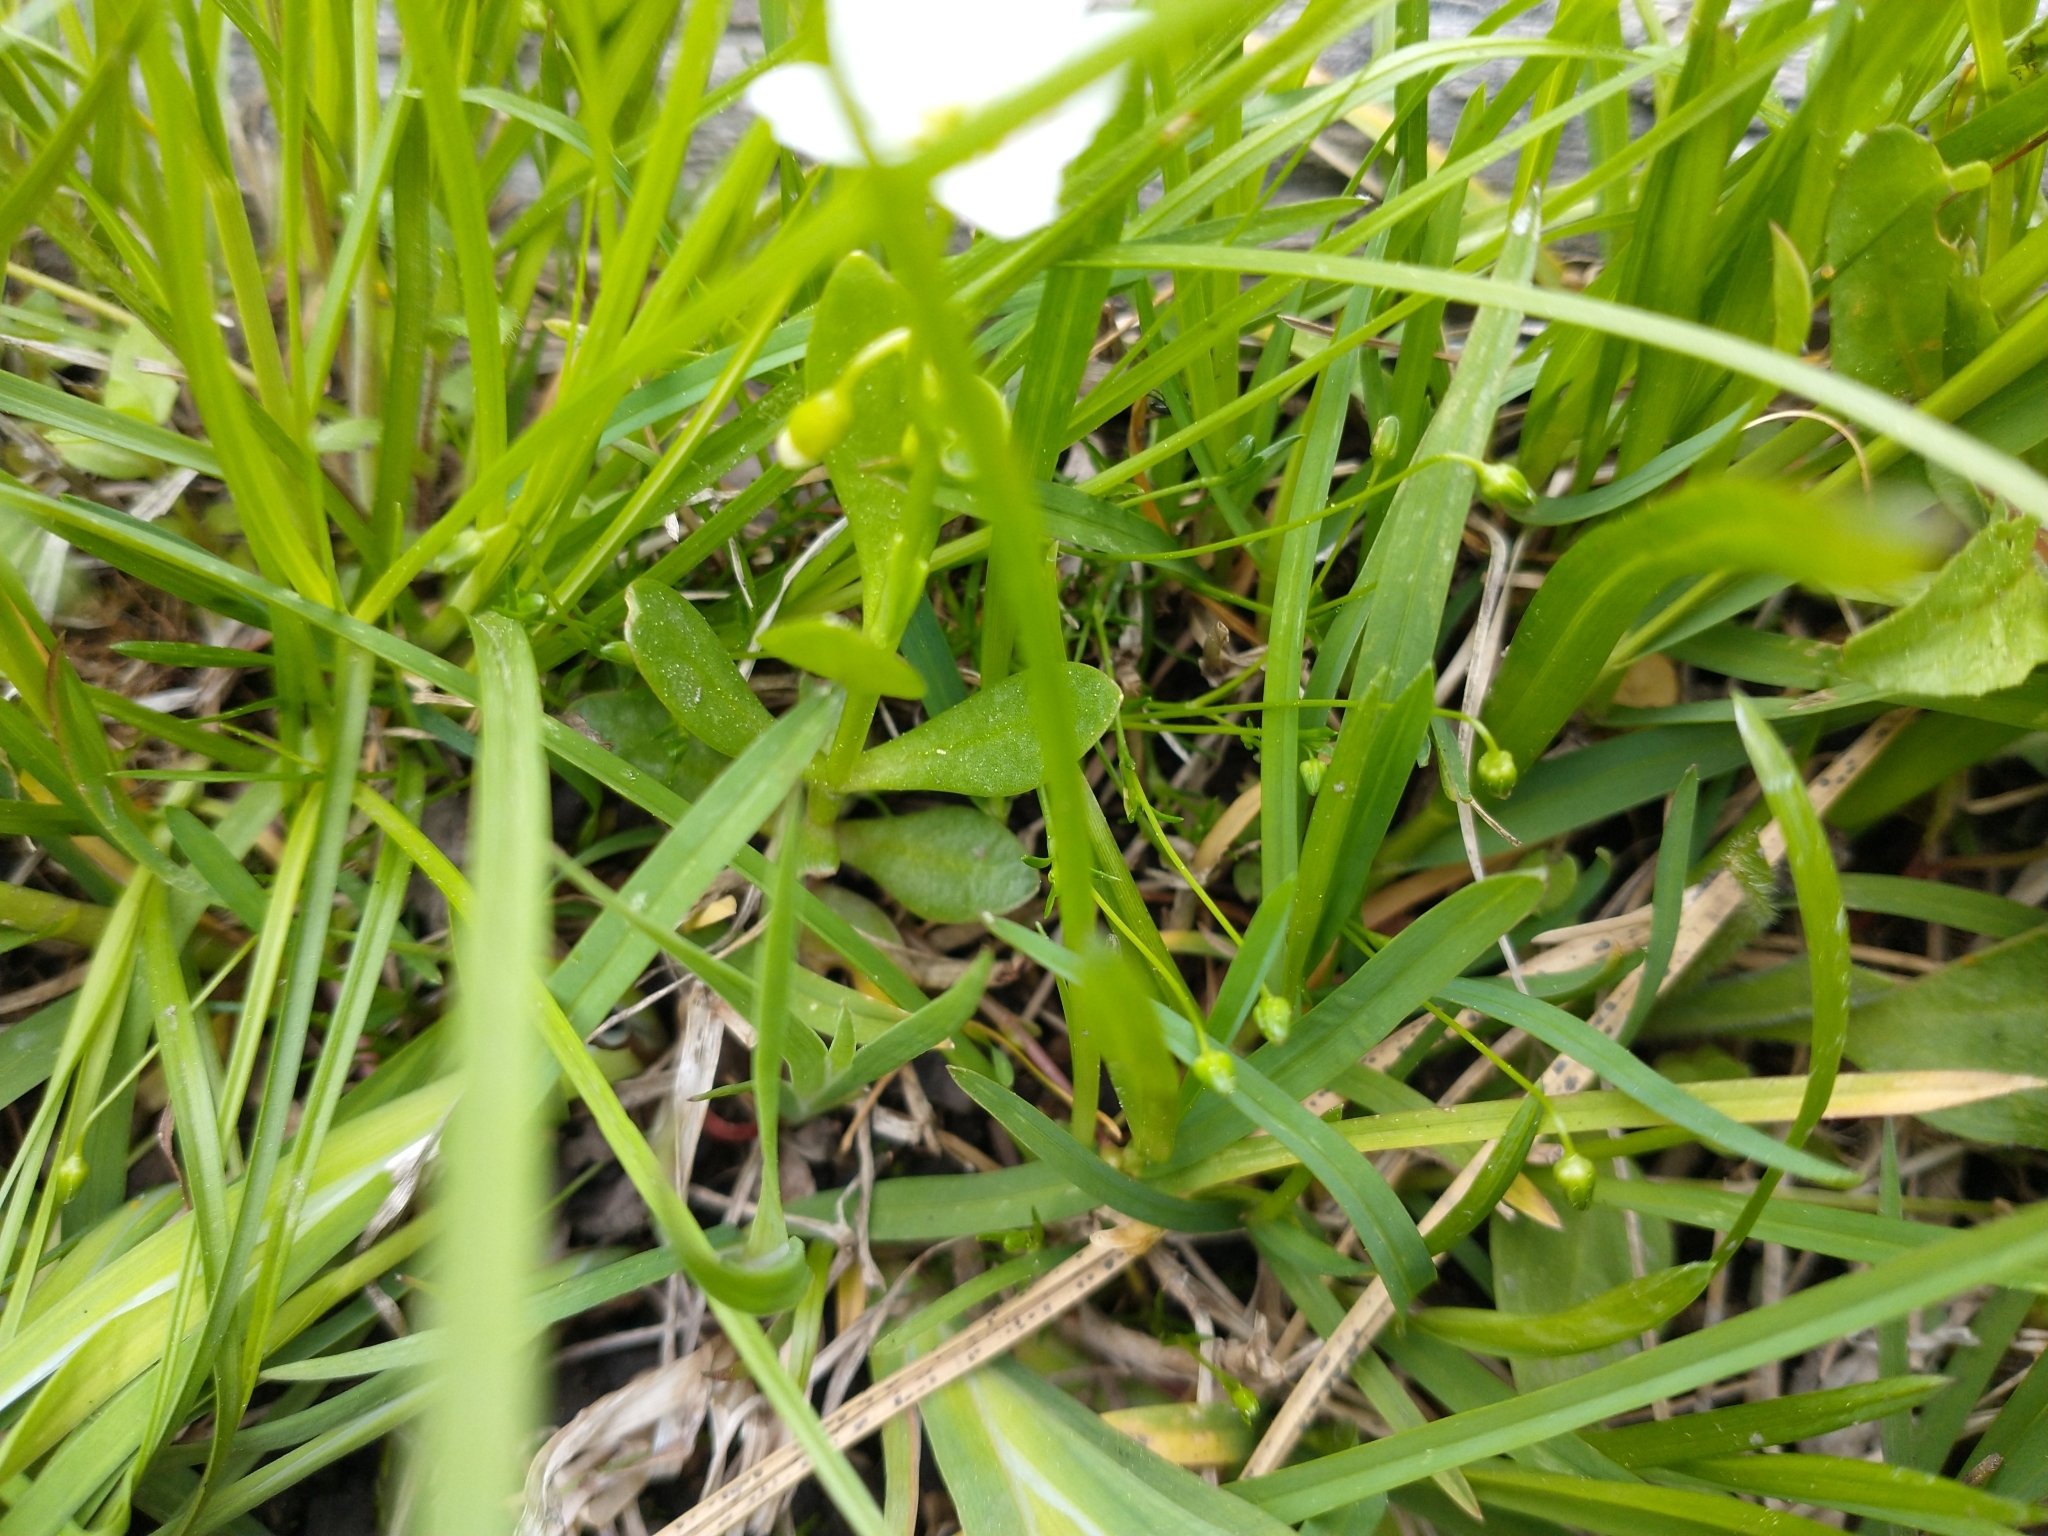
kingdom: Plantae
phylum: Tracheophyta
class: Magnoliopsida
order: Caryophyllales
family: Montiaceae
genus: Montia
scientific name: Montia chamissoi
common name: Chamisso's candyflower
